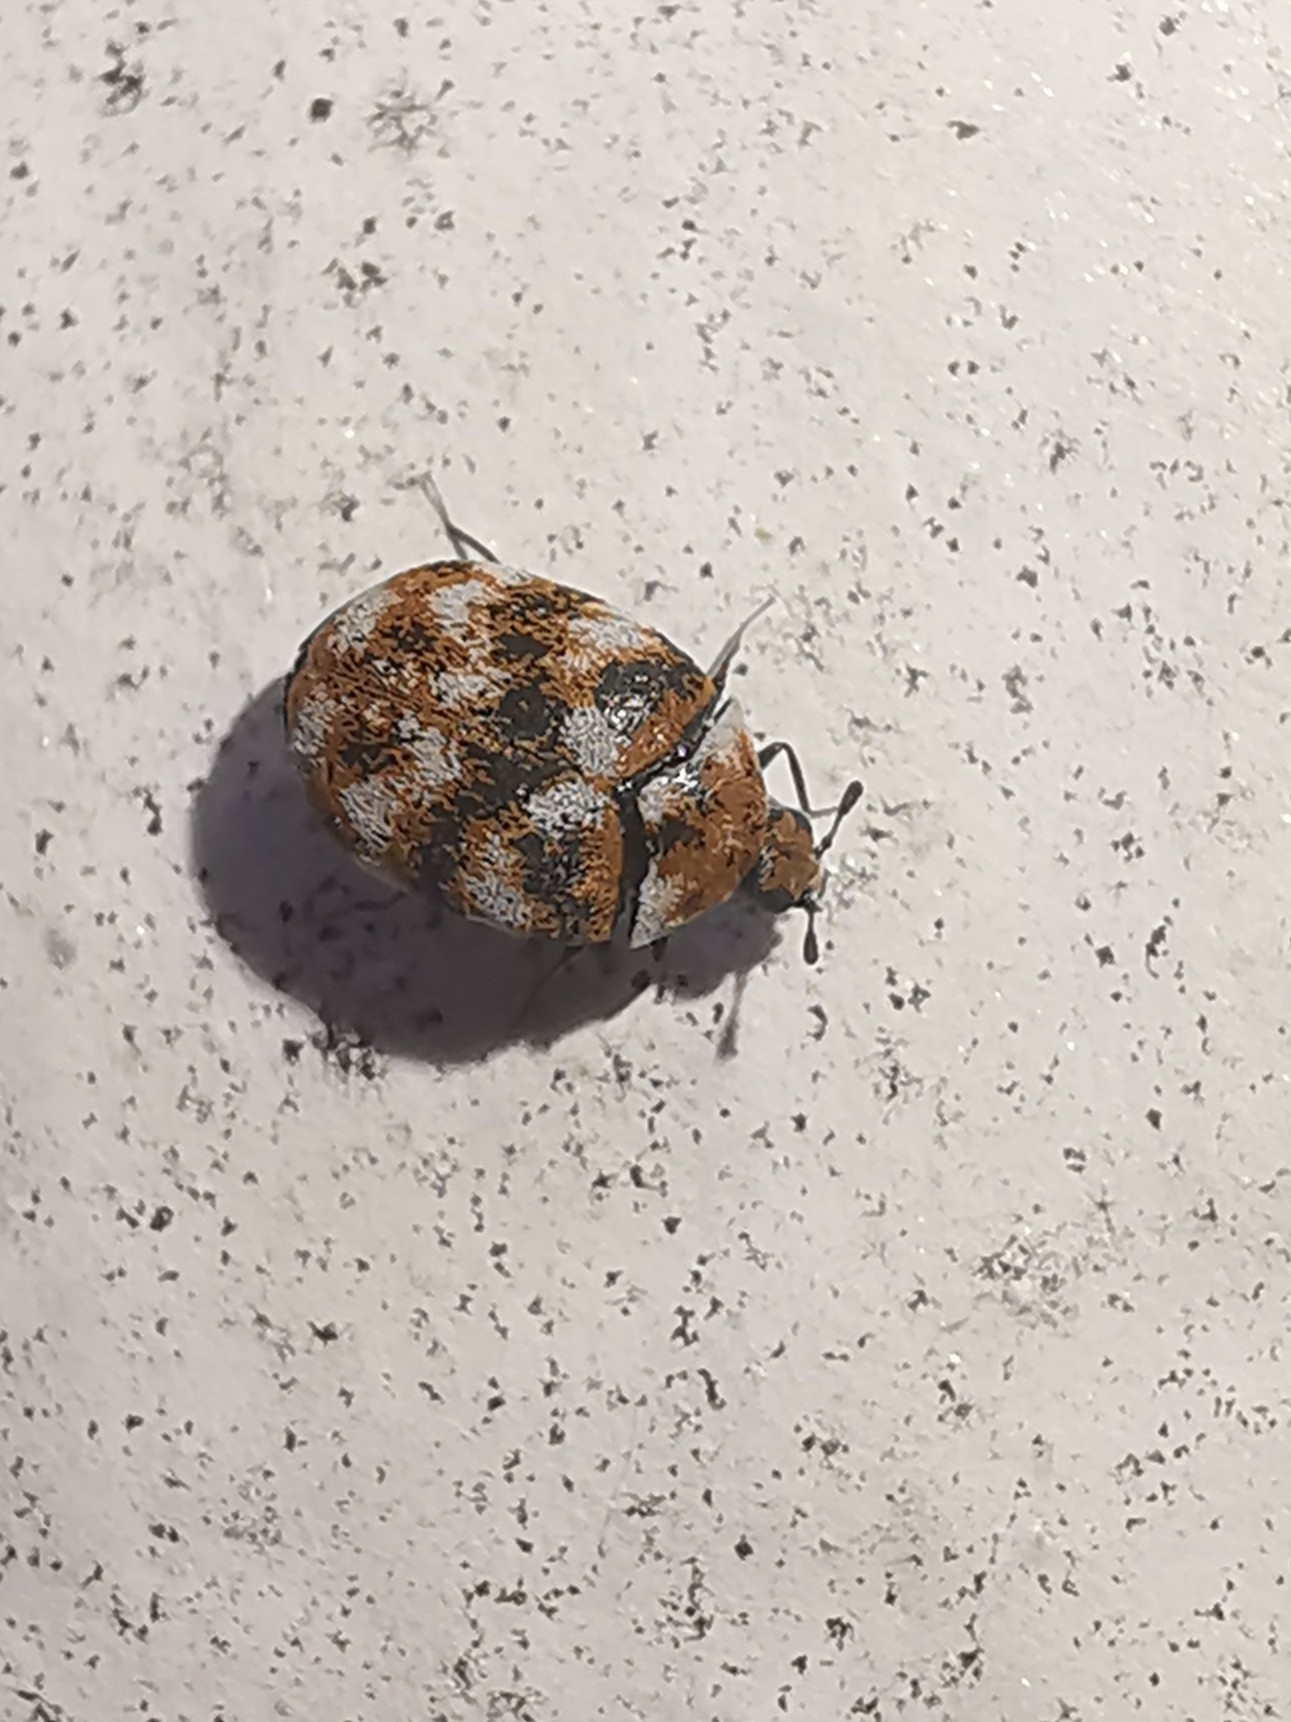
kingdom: Animalia
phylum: Arthropoda
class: Insecta
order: Coleoptera
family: Dermestidae
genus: Anthrenus
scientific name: Anthrenus verbasci
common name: Varied carpet beetle
